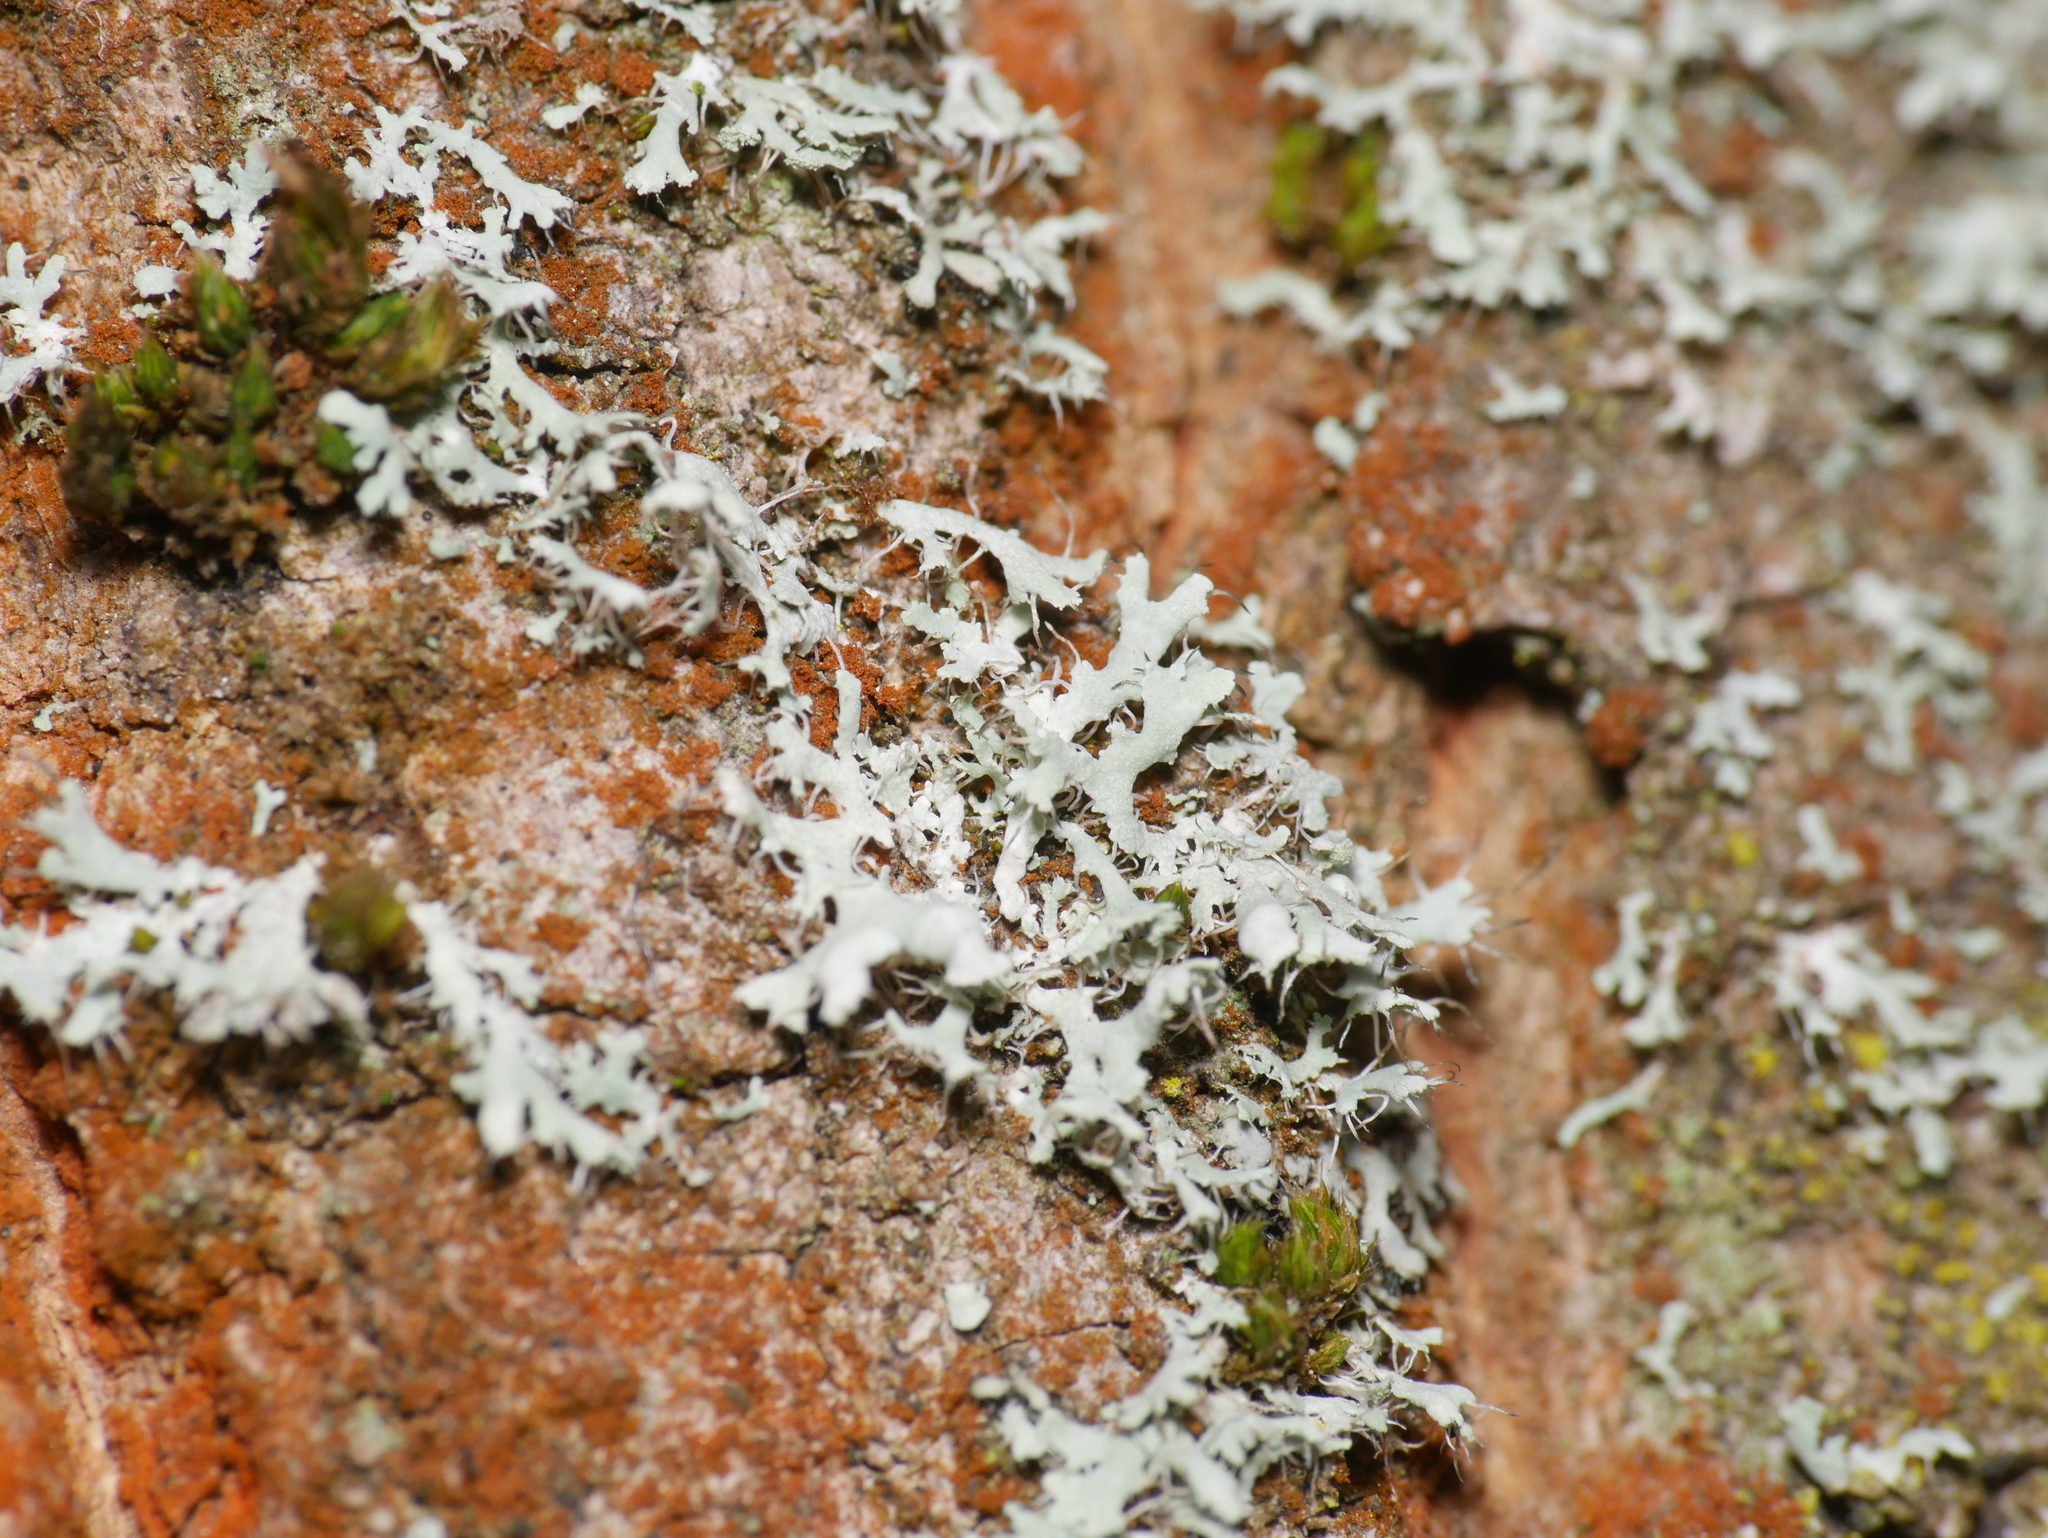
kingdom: Fungi
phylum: Ascomycota
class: Lecanoromycetes
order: Caliciales
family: Physciaceae
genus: Physcia
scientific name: Physcia adscendens
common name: Hooded rosette lichen
